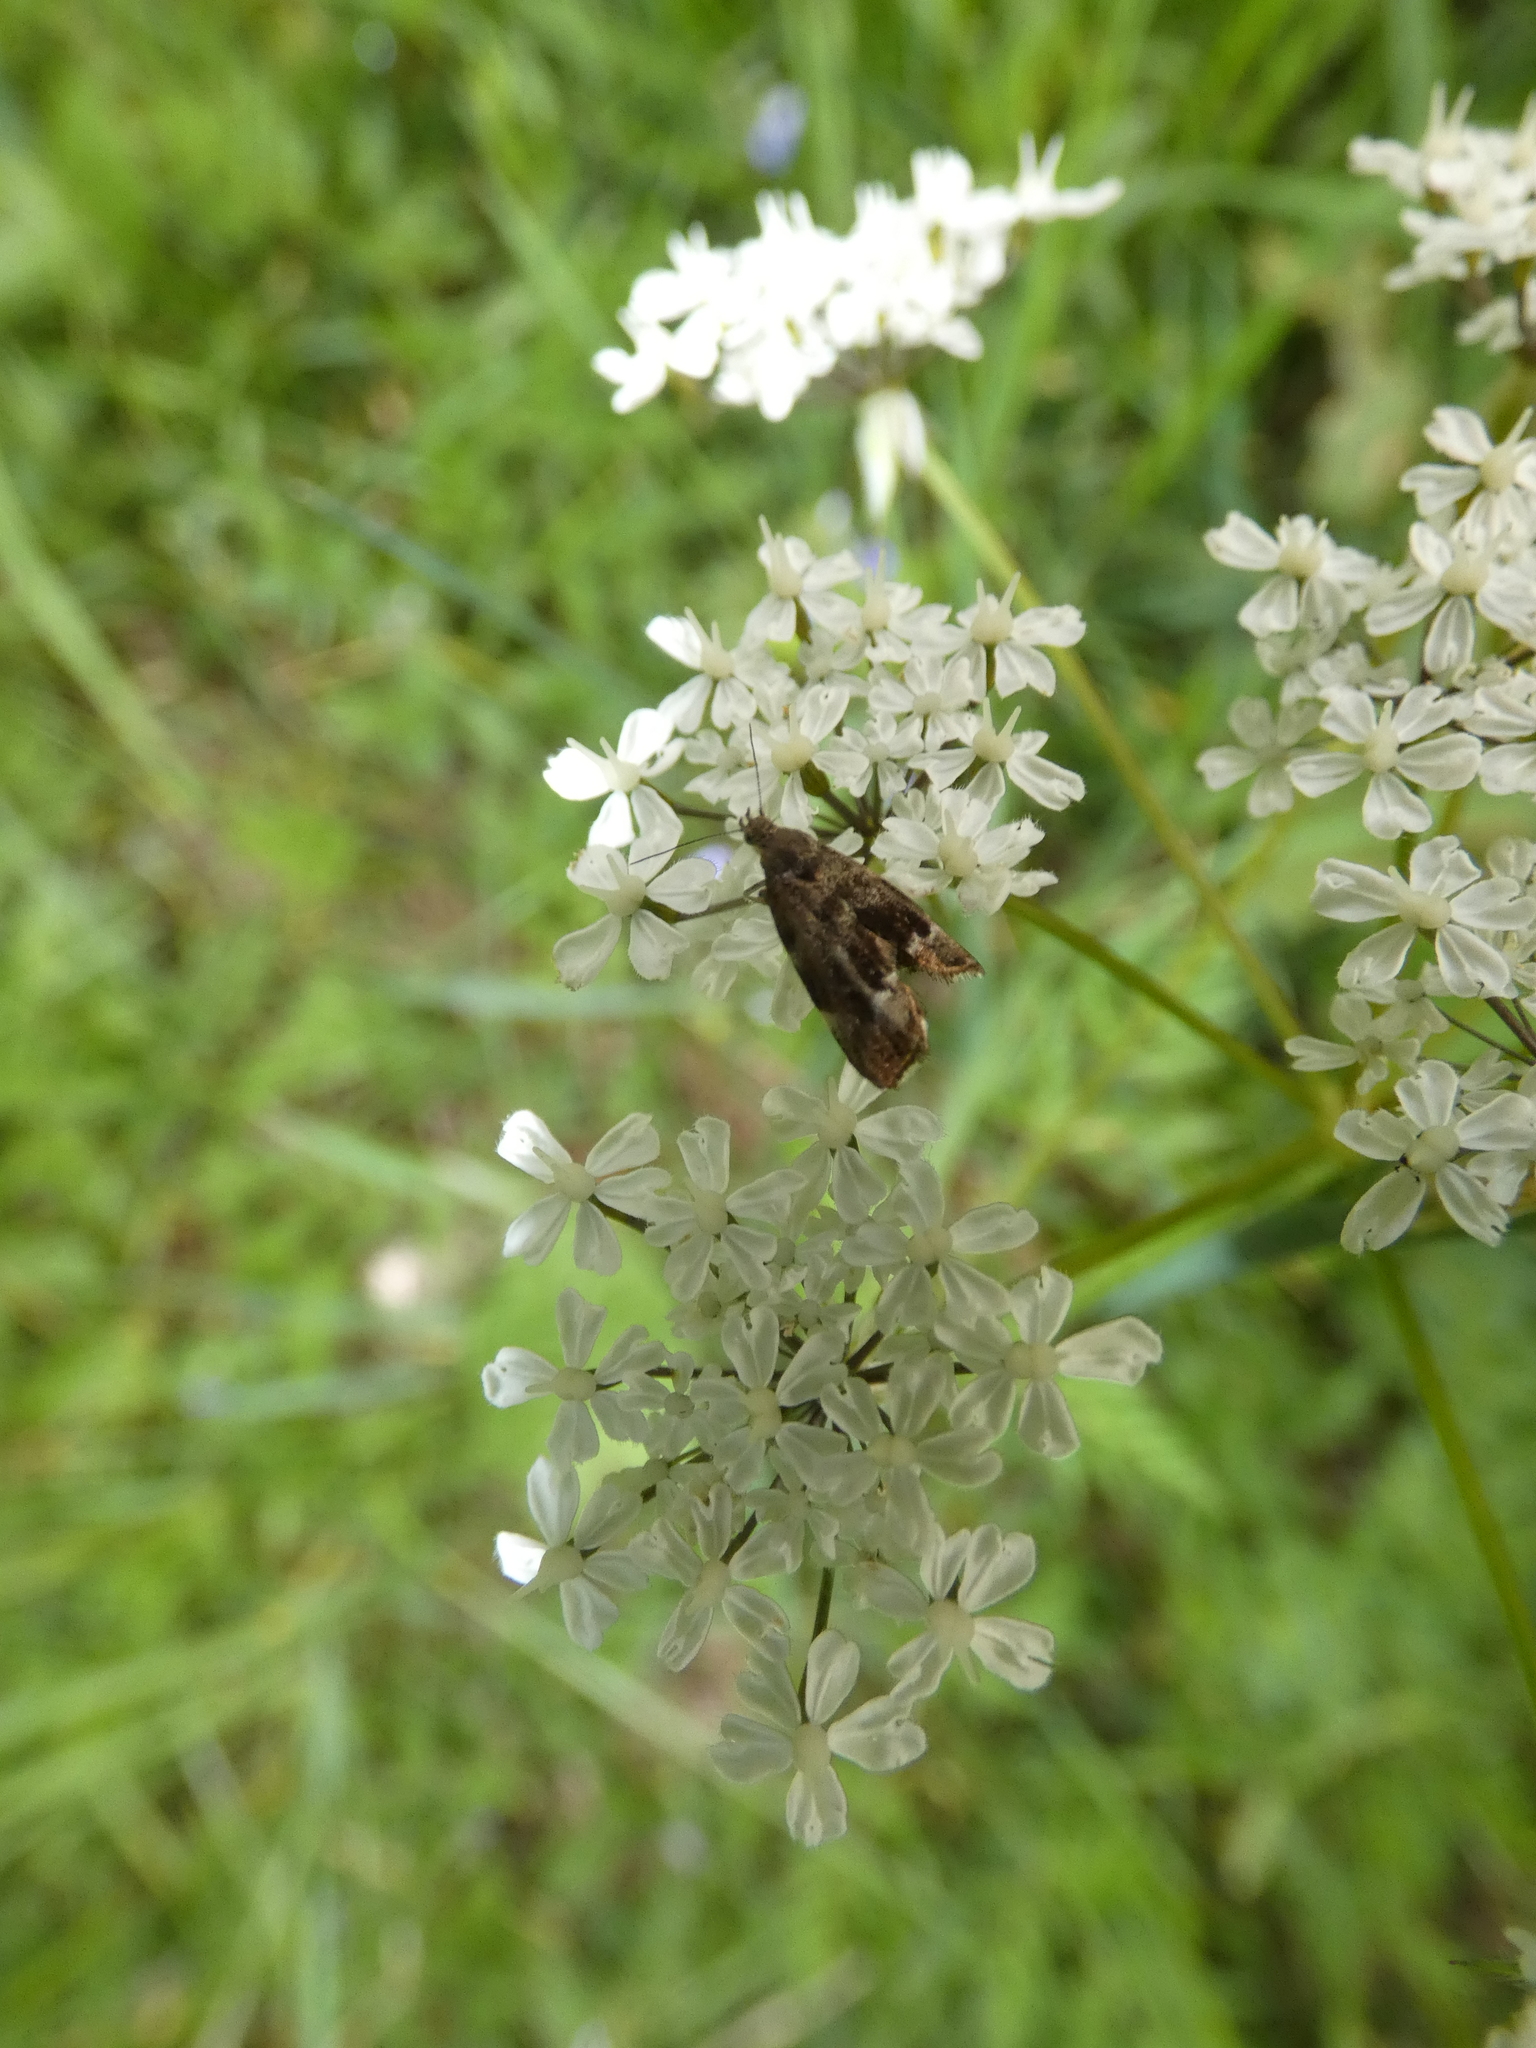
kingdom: Animalia
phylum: Arthropoda
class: Insecta
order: Lepidoptera
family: Choreutidae
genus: Anthophila
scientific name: Anthophila fabriciana
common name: Nettle-tap
